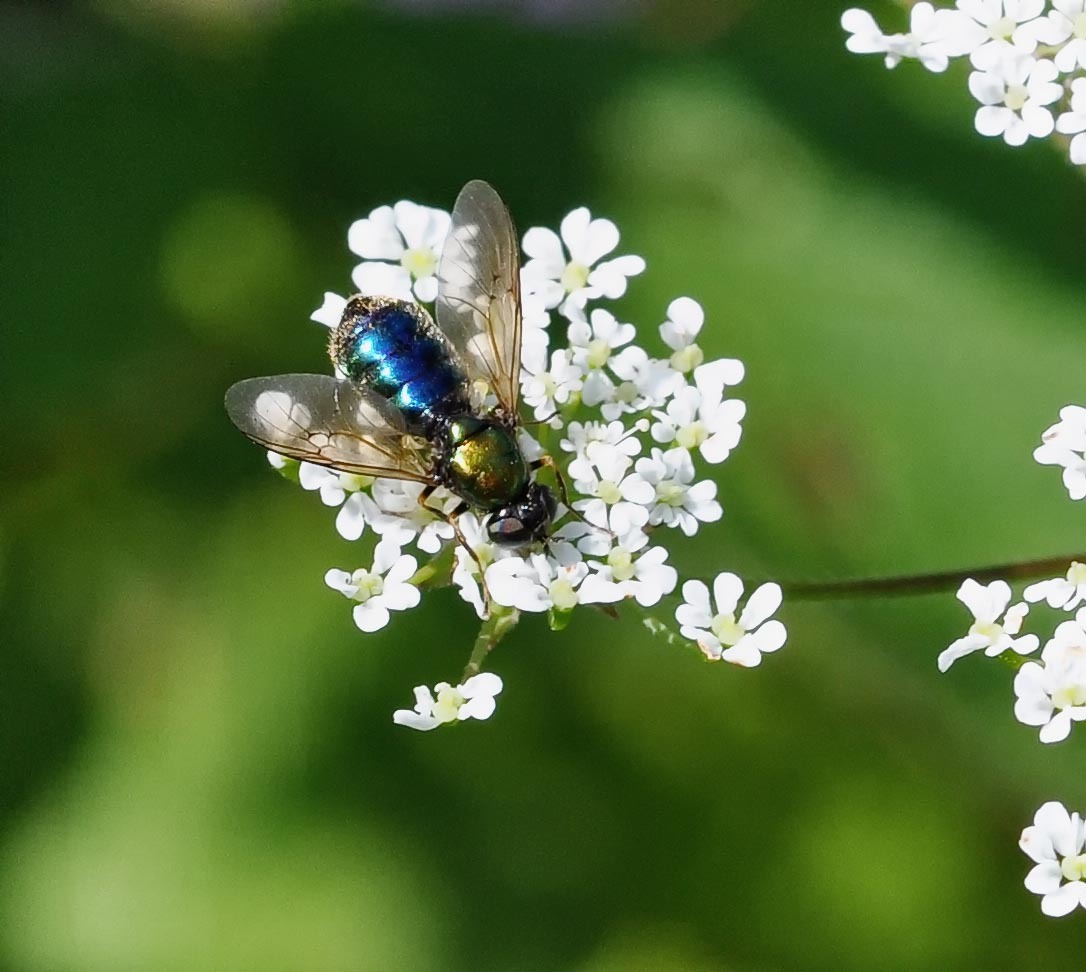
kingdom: Animalia
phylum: Arthropoda
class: Insecta
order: Diptera
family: Stratiomyidae
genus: Chloromyia
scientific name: Chloromyia formosa
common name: Soldier fly
